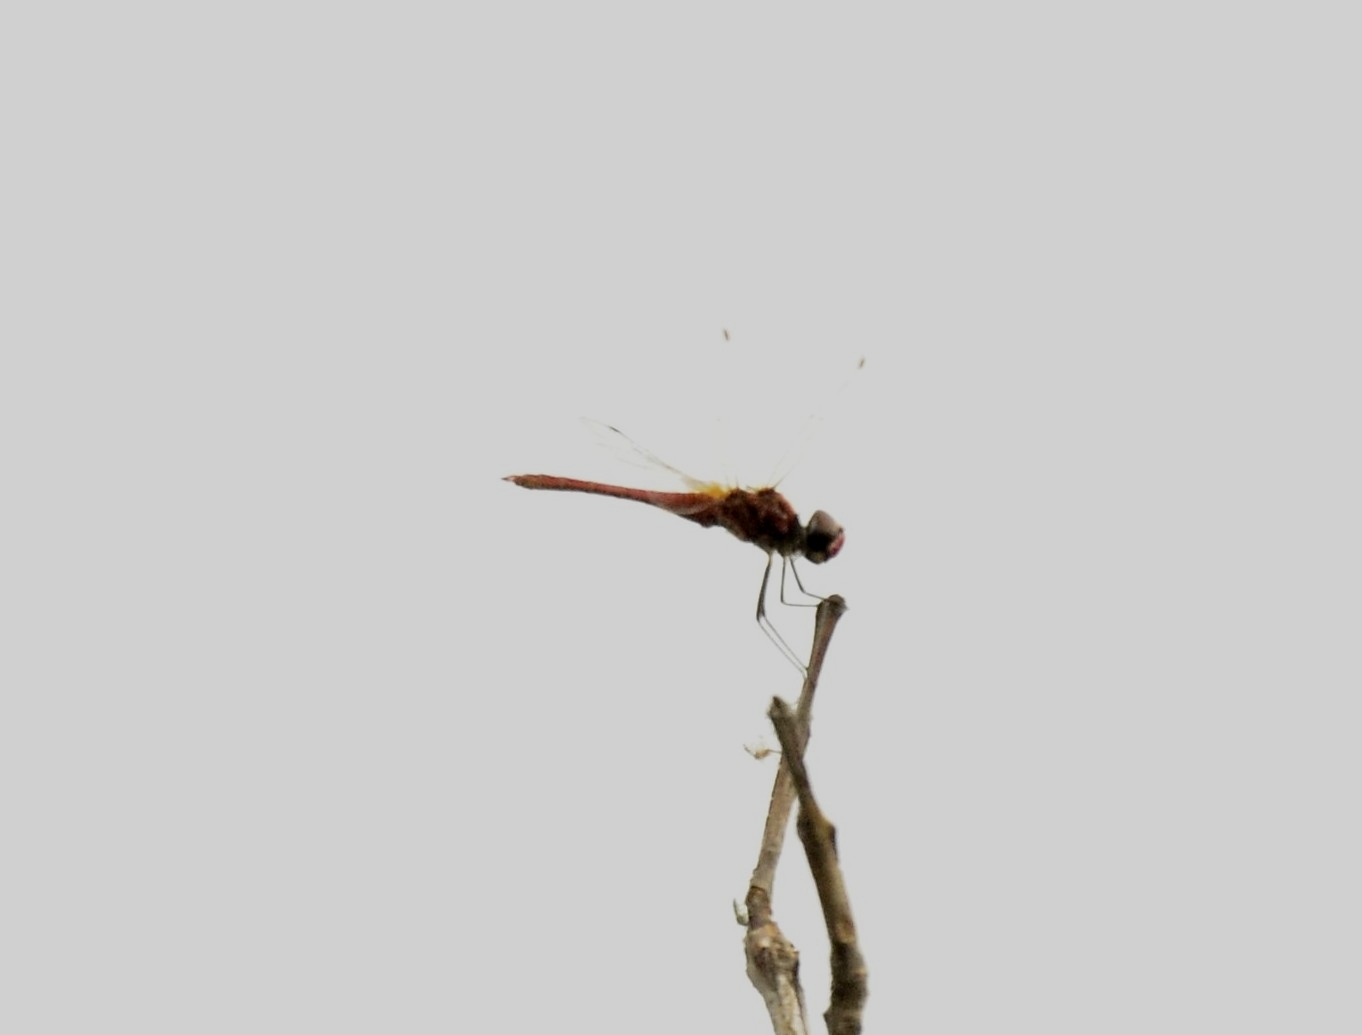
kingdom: Animalia
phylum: Arthropoda
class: Insecta
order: Odonata
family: Libellulidae
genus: Macrodiplax
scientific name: Macrodiplax cora
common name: Coastal glider
